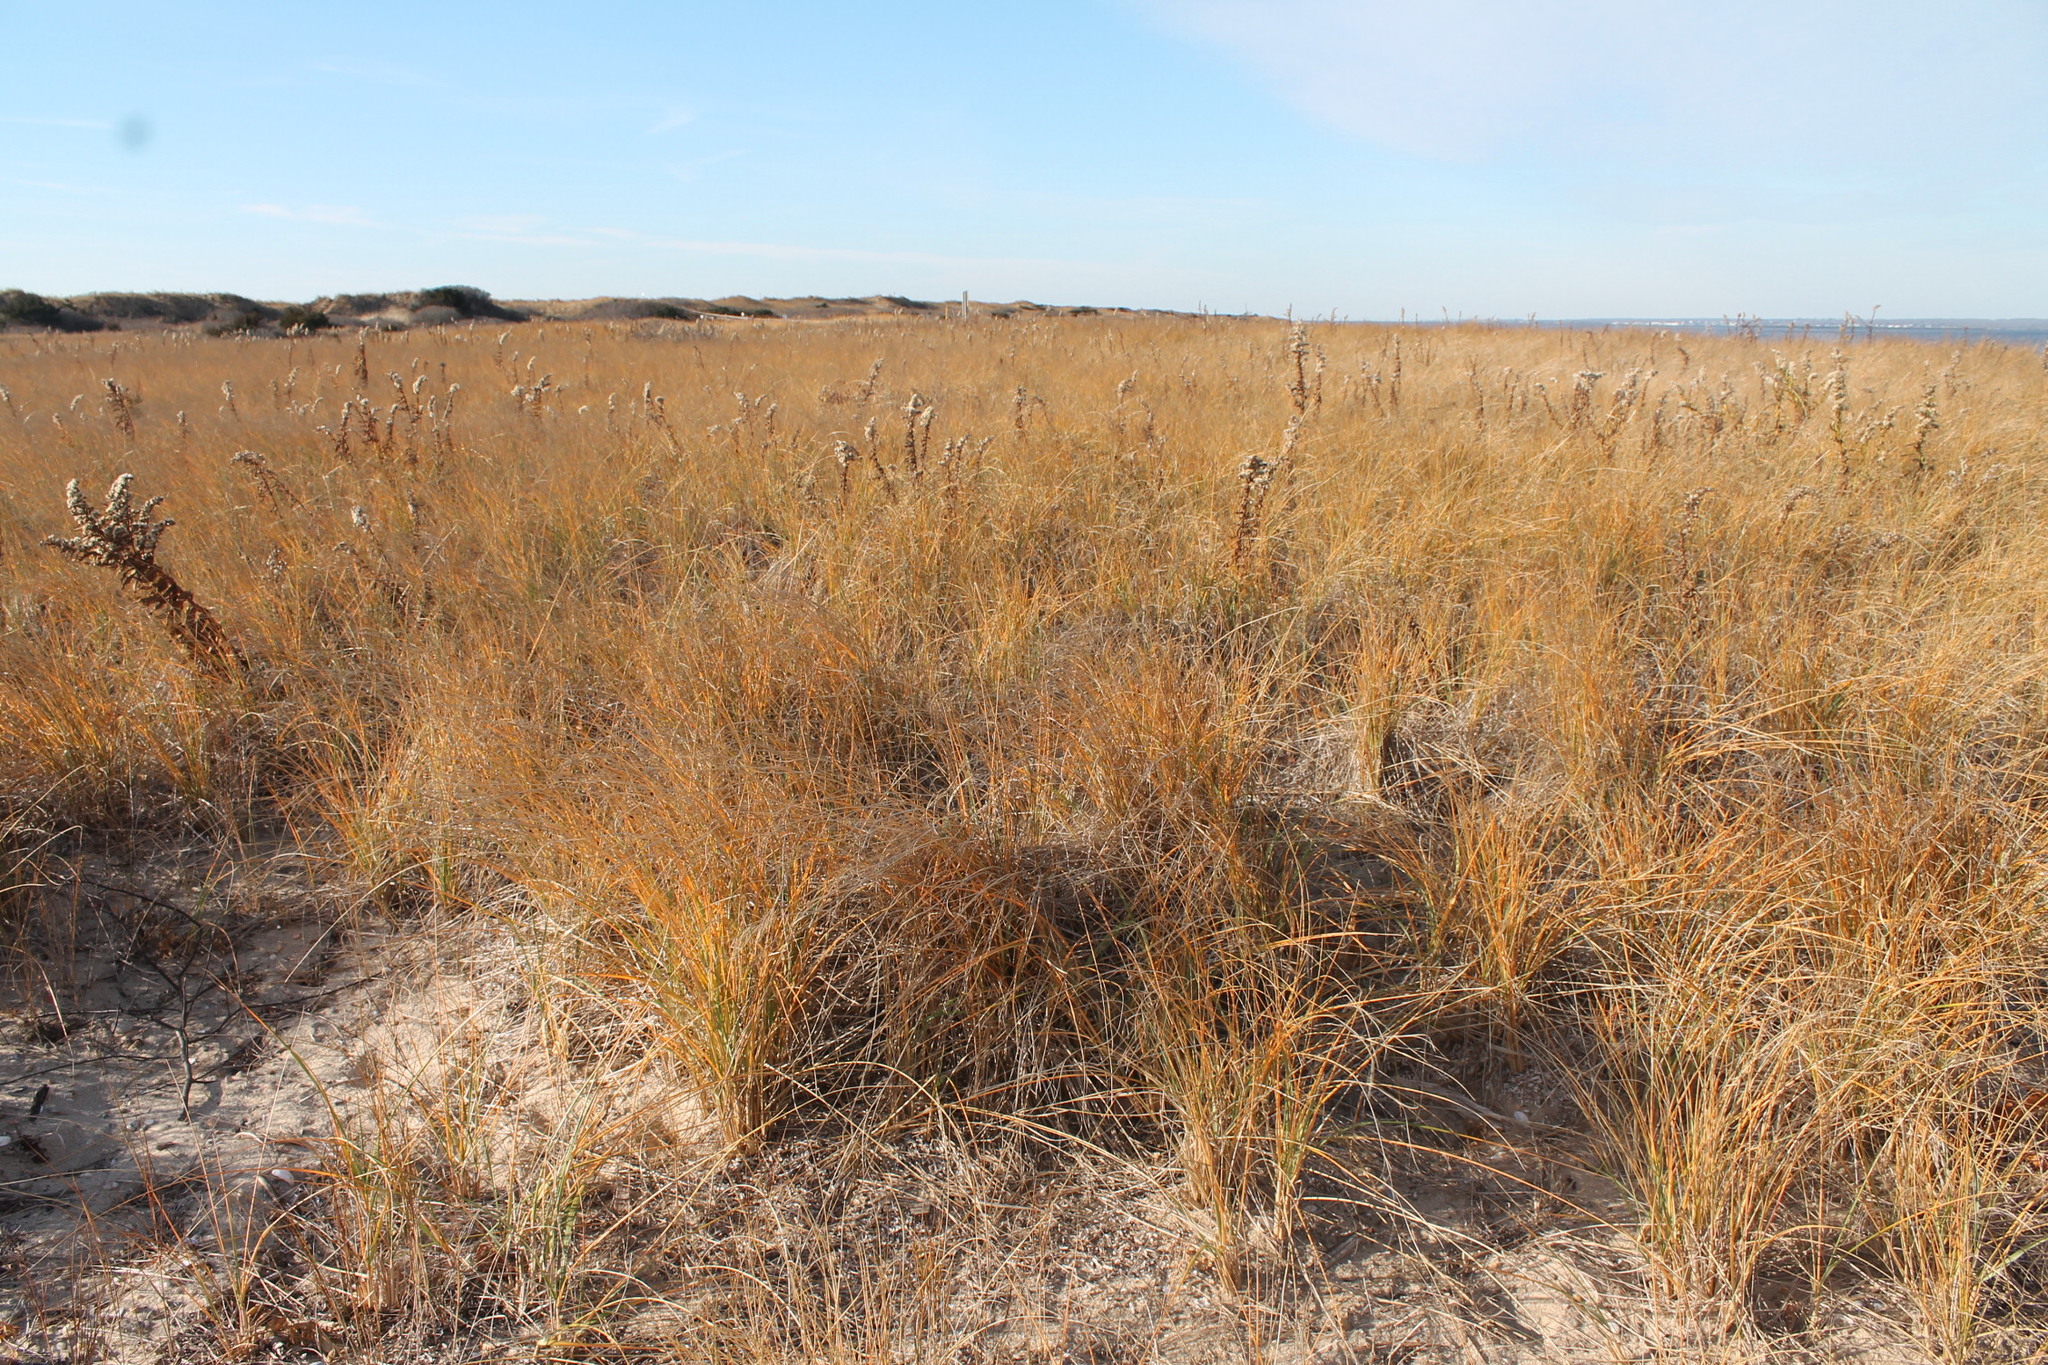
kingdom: Plantae
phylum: Tracheophyta
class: Liliopsida
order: Poales
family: Poaceae
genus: Calamagrostis
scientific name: Calamagrostis breviligulata
